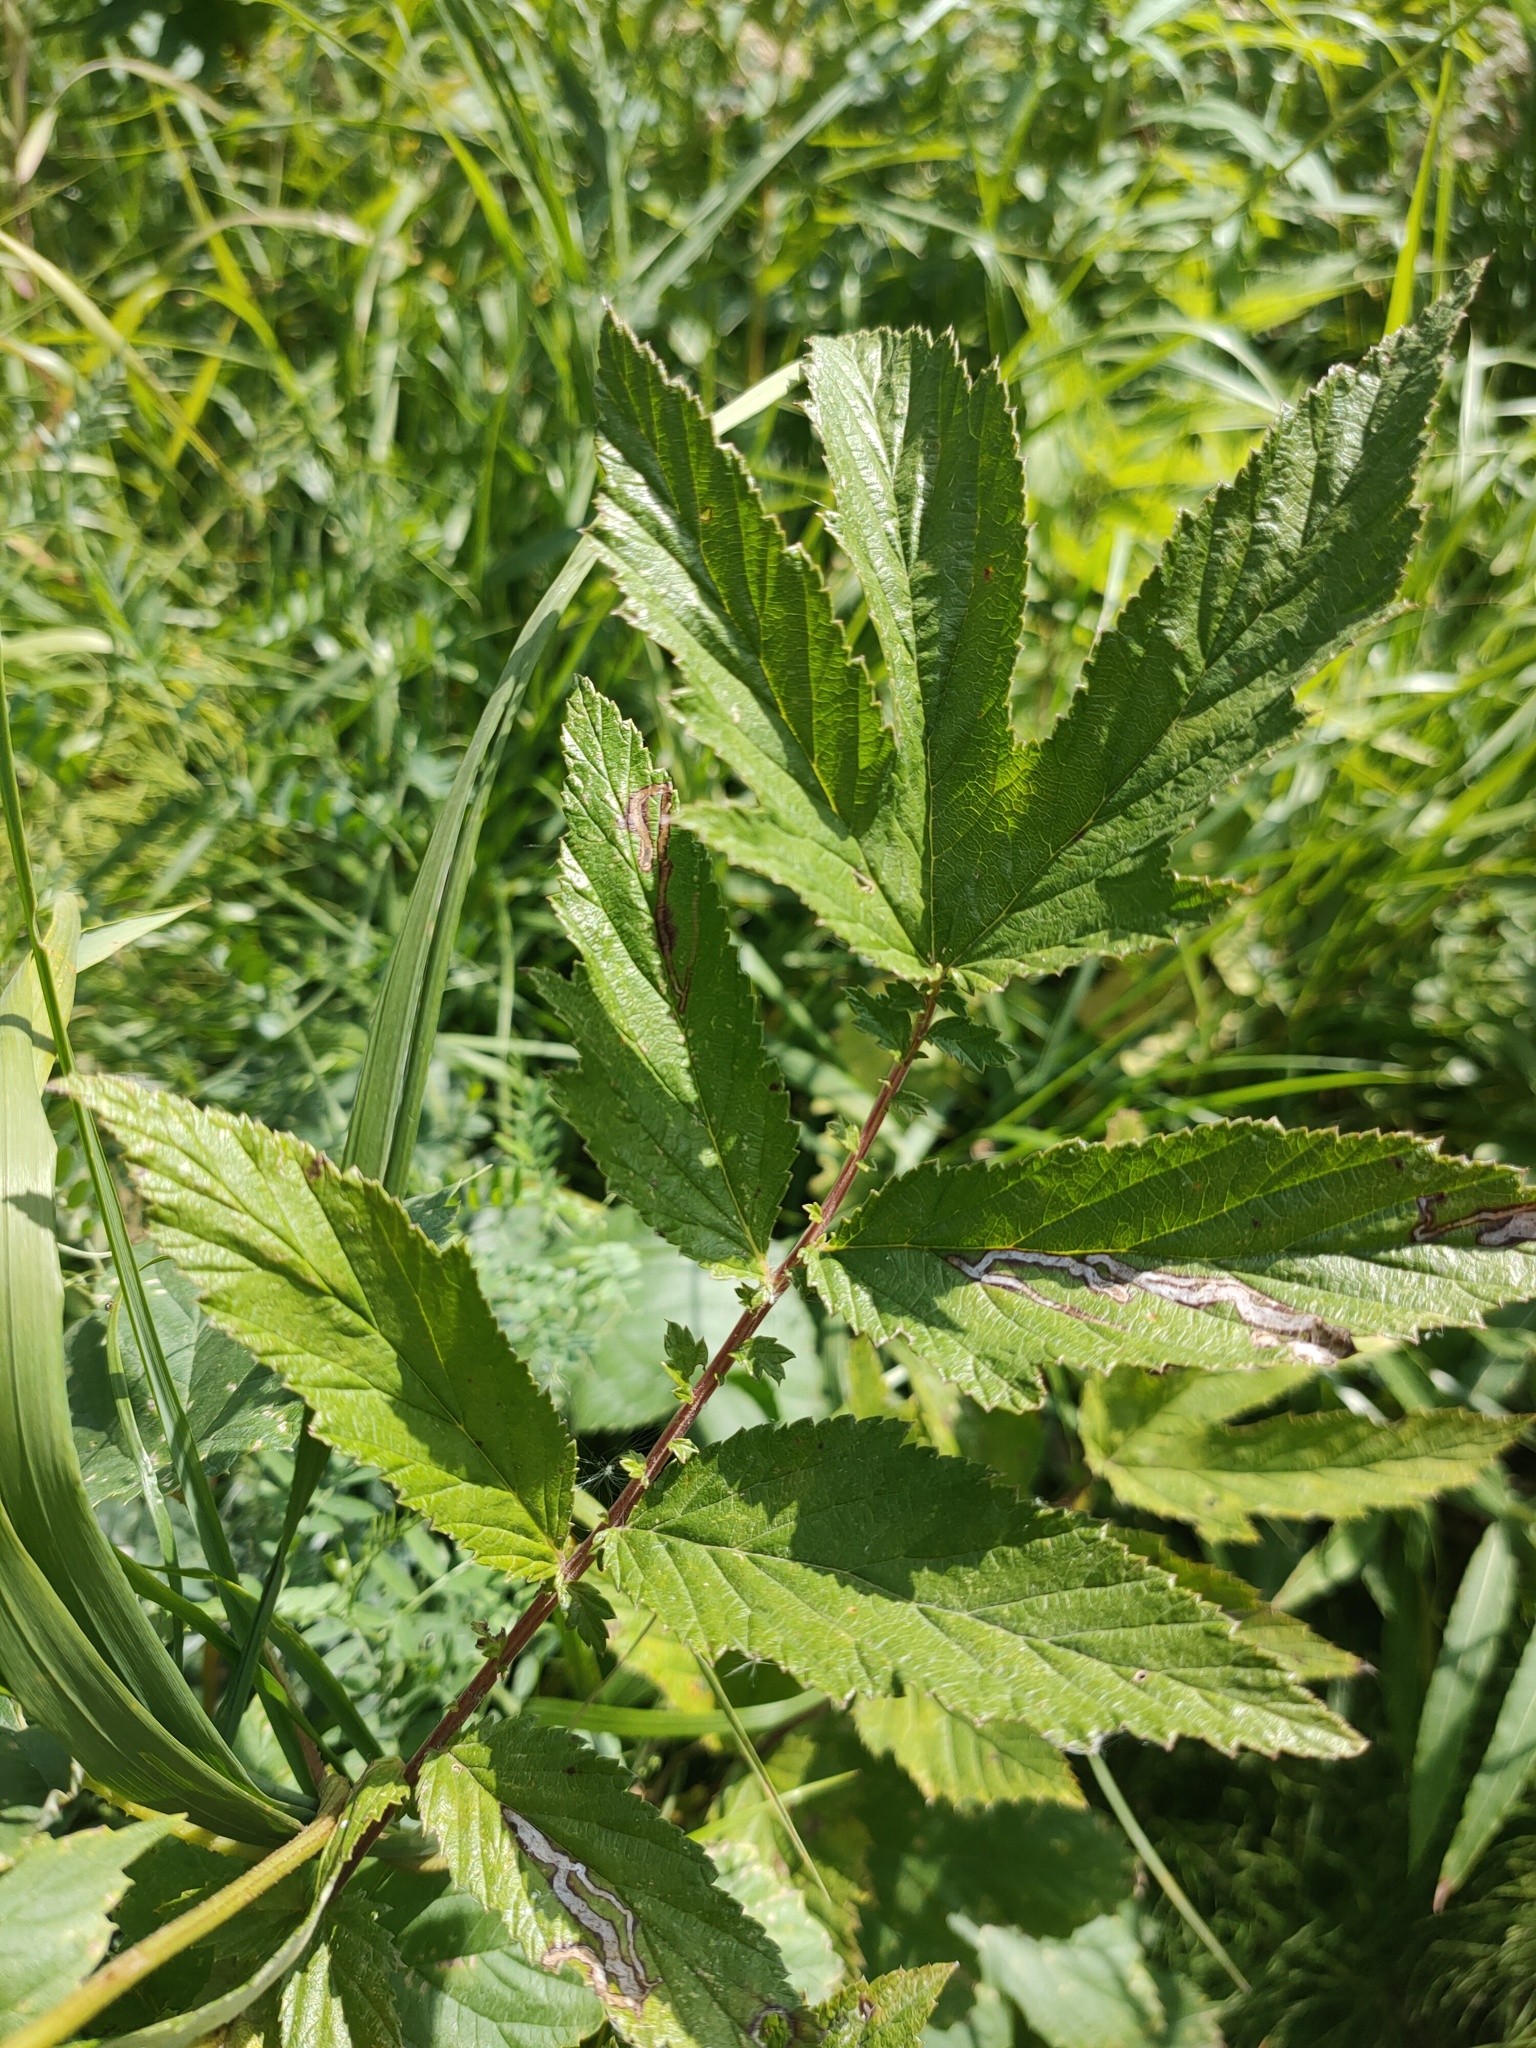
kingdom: Plantae
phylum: Tracheophyta
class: Magnoliopsida
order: Rosales
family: Rosaceae
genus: Filipendula
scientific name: Filipendula ulmaria
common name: Meadowsweet
